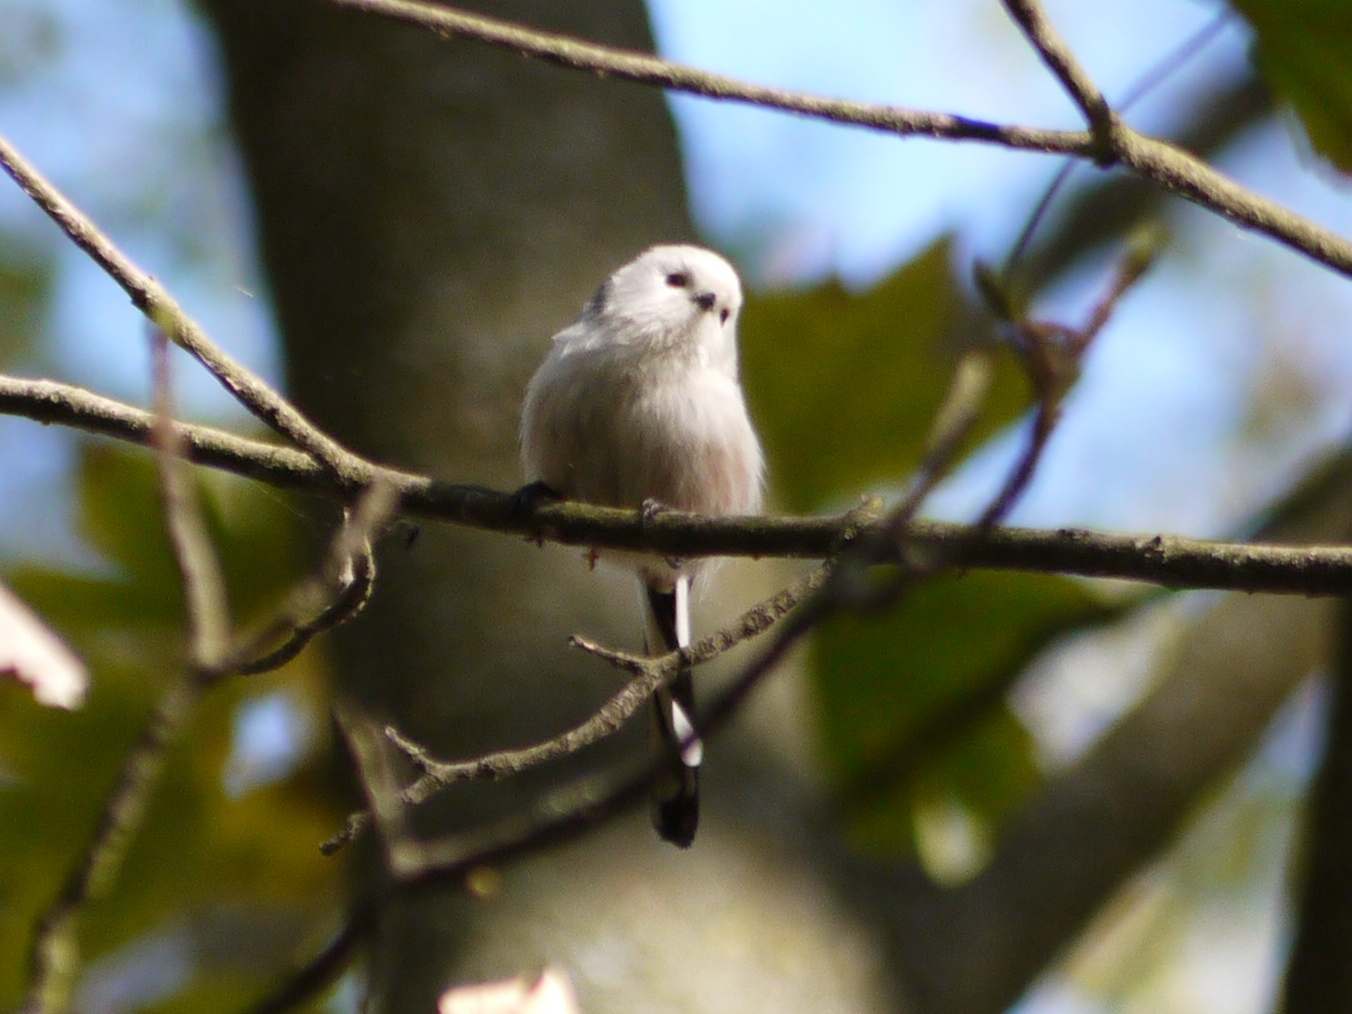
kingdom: Animalia
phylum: Chordata
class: Aves
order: Passeriformes
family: Aegithalidae
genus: Aegithalos
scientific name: Aegithalos caudatus
